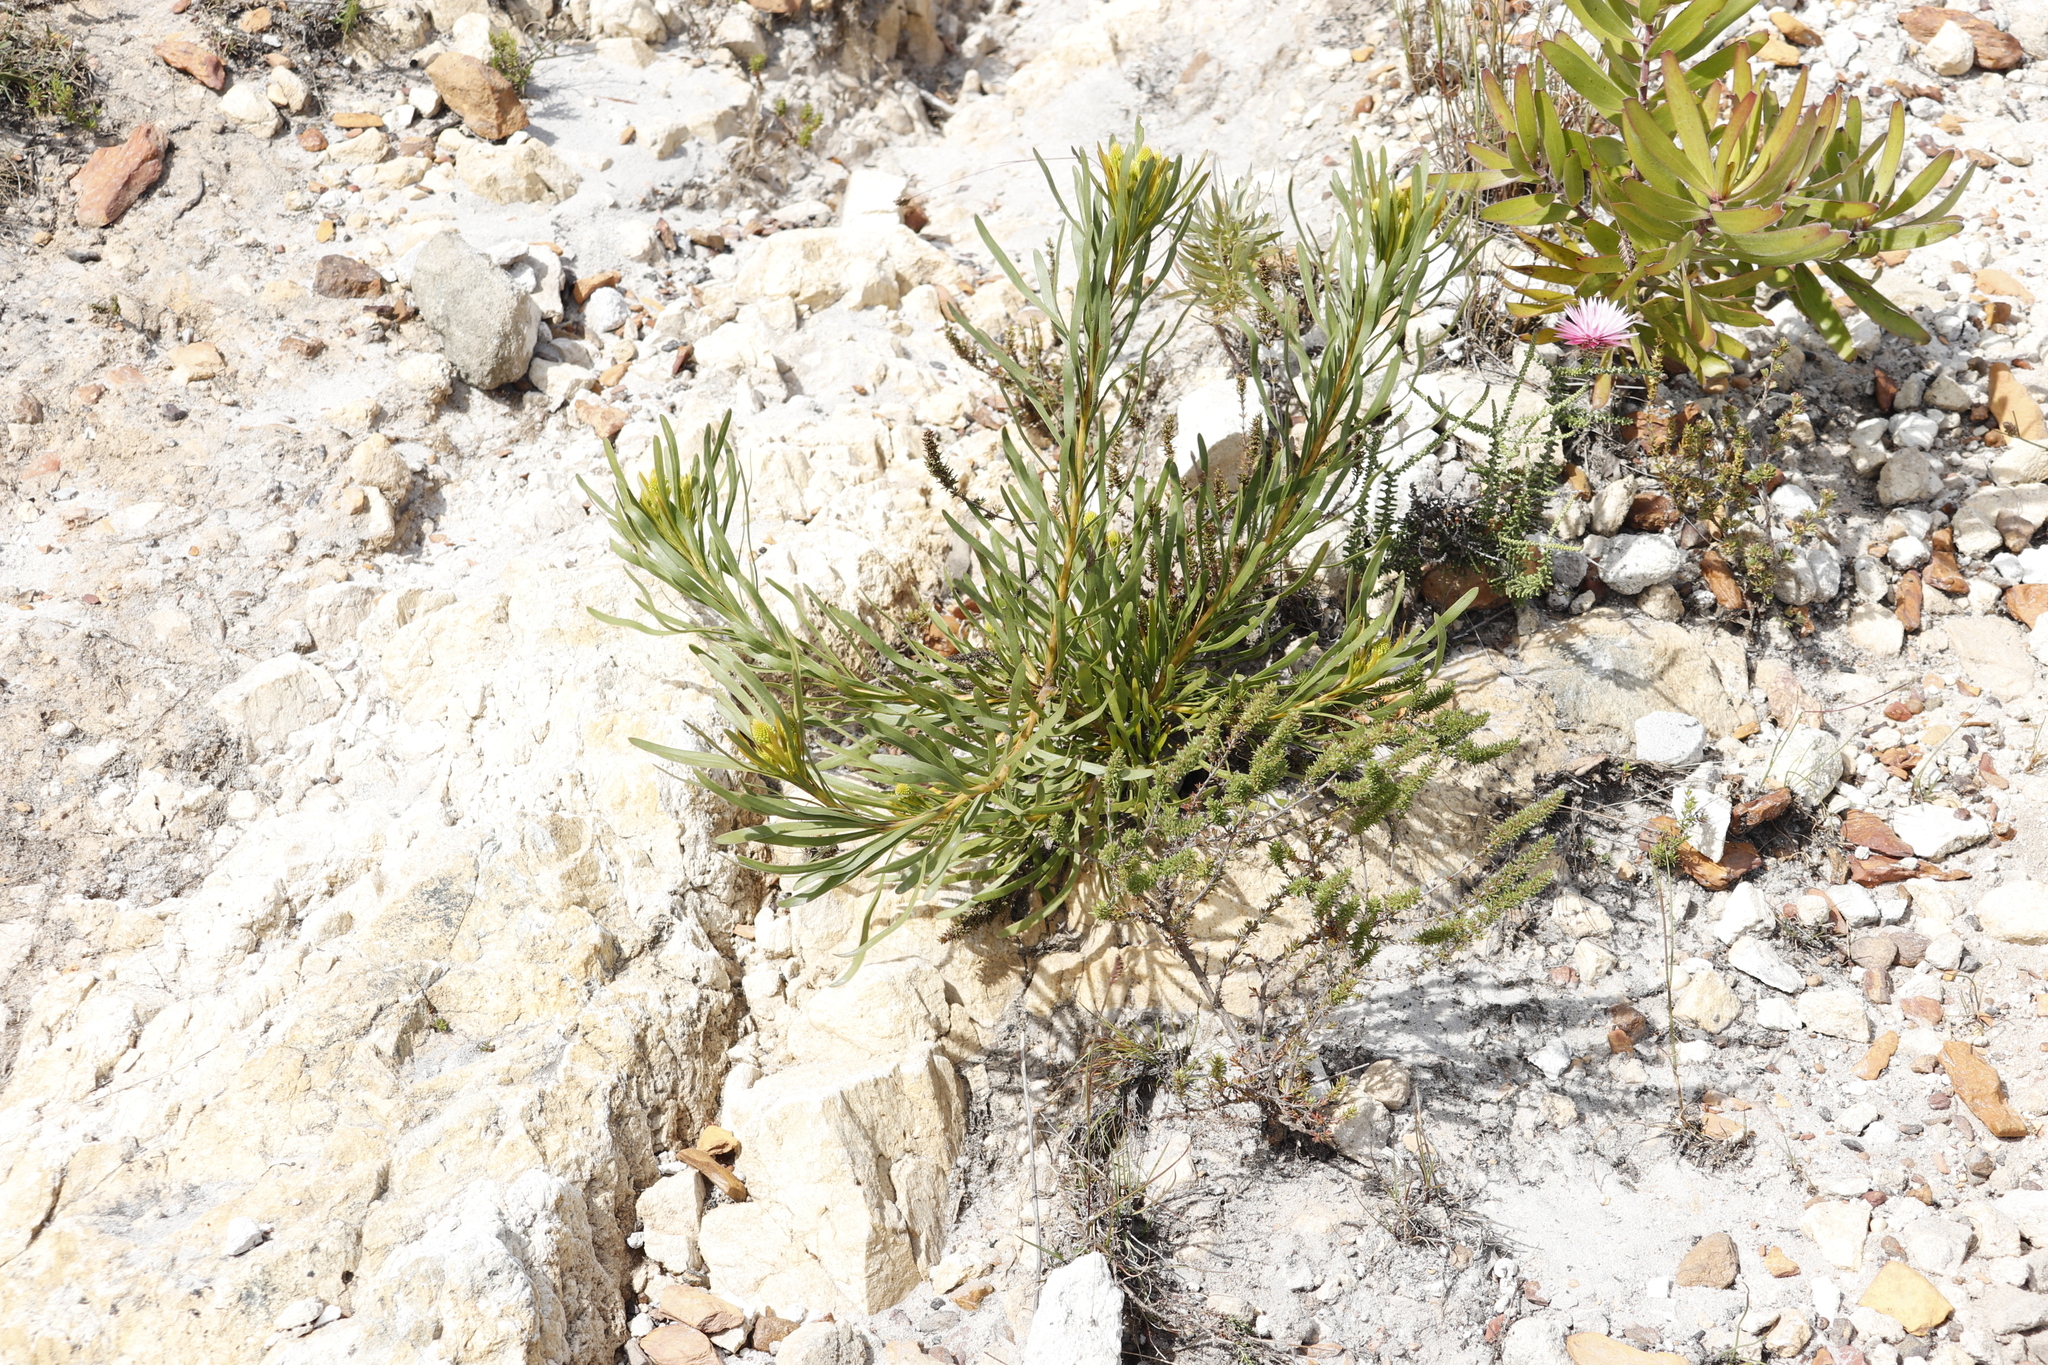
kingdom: Plantae
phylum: Tracheophyta
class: Magnoliopsida
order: Proteales
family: Proteaceae
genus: Aulax
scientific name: Aulax umbellata
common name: Broad-leaf featherbush
